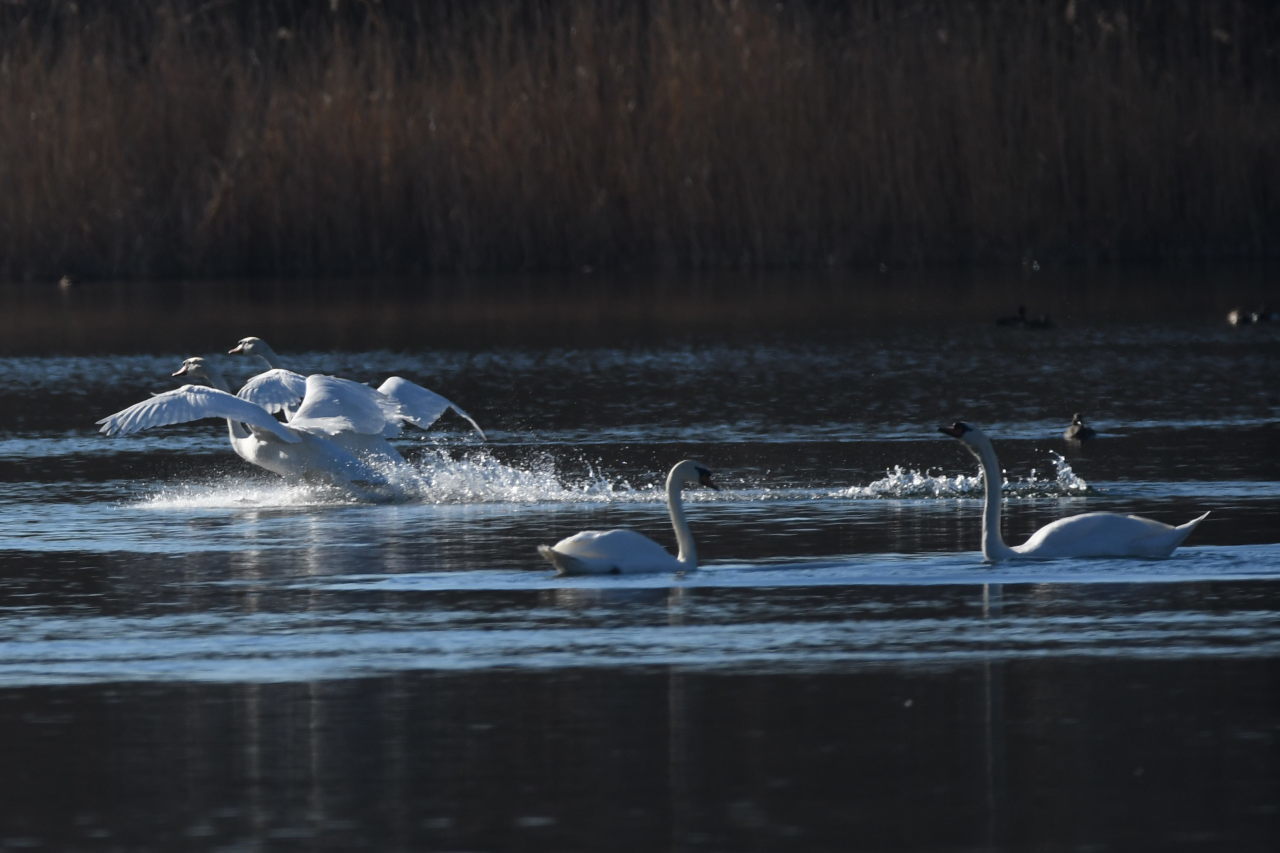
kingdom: Animalia
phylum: Chordata
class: Aves
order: Anseriformes
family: Anatidae
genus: Cygnus
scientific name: Cygnus olor
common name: Mute swan
